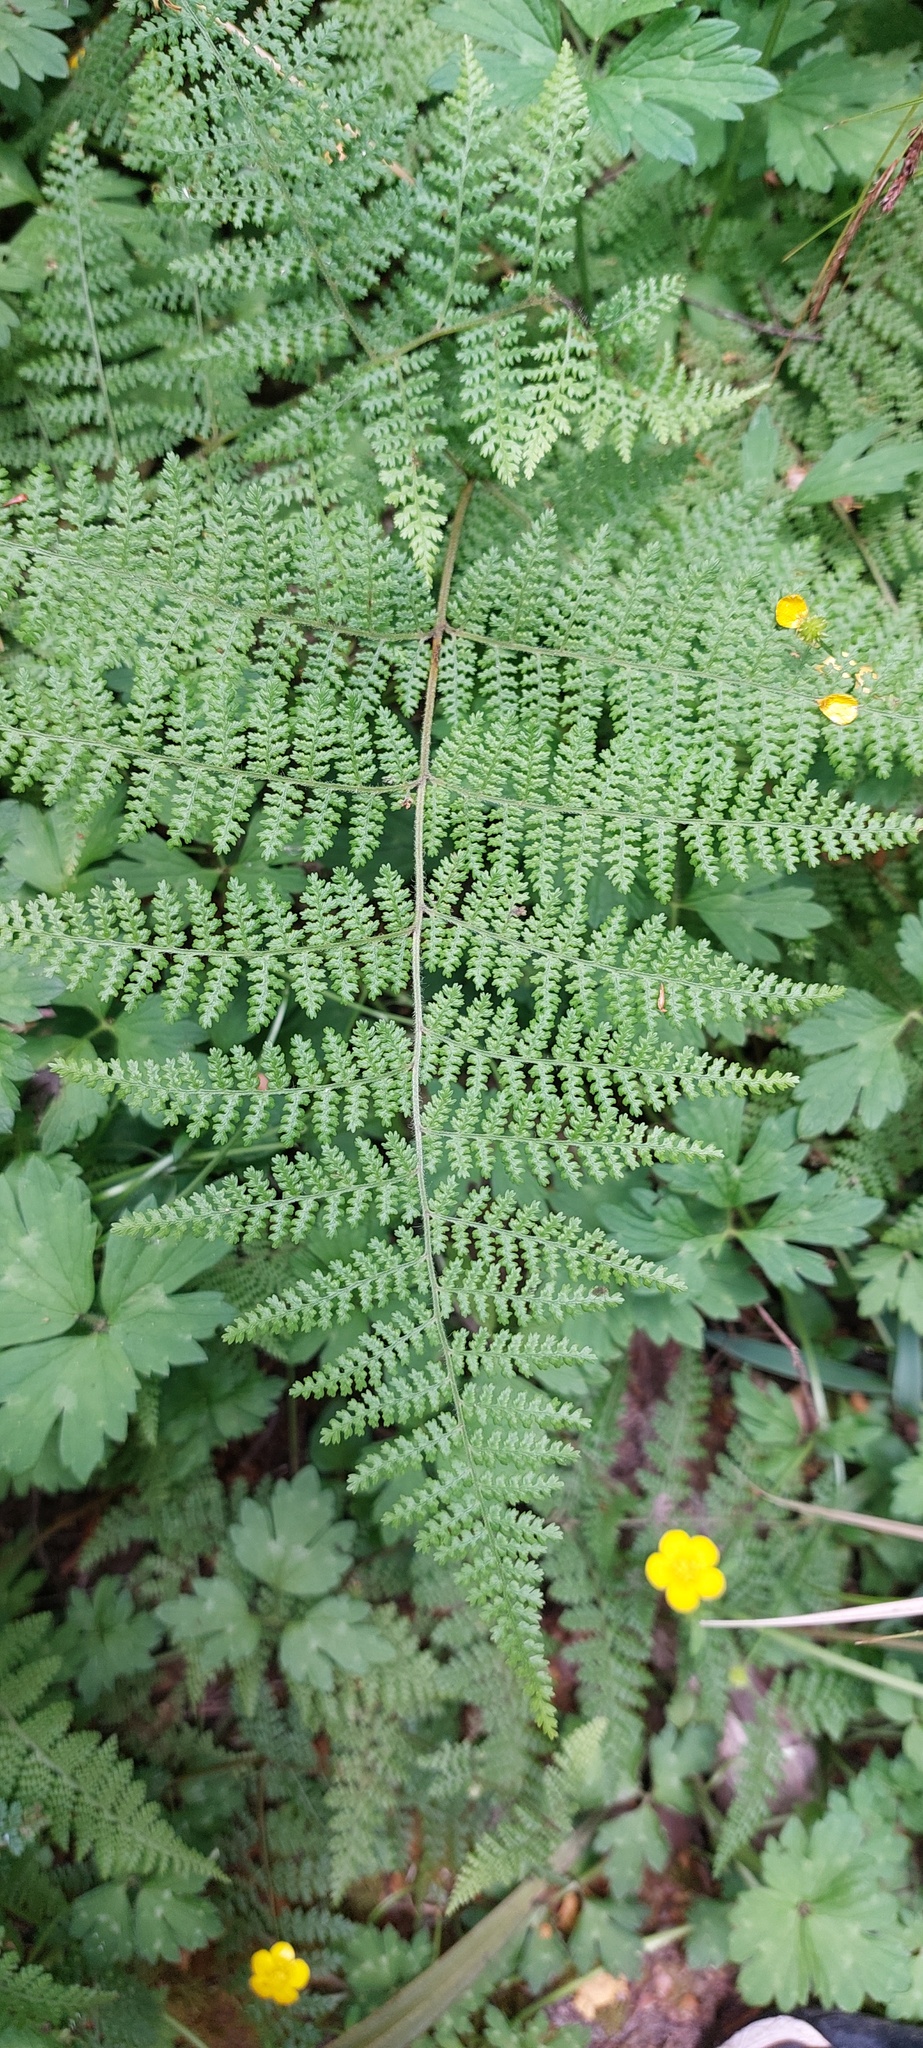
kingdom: Plantae
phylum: Tracheophyta
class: Polypodiopsida
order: Polypodiales
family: Dennstaedtiaceae
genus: Hypolepis
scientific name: Hypolepis millefolium
